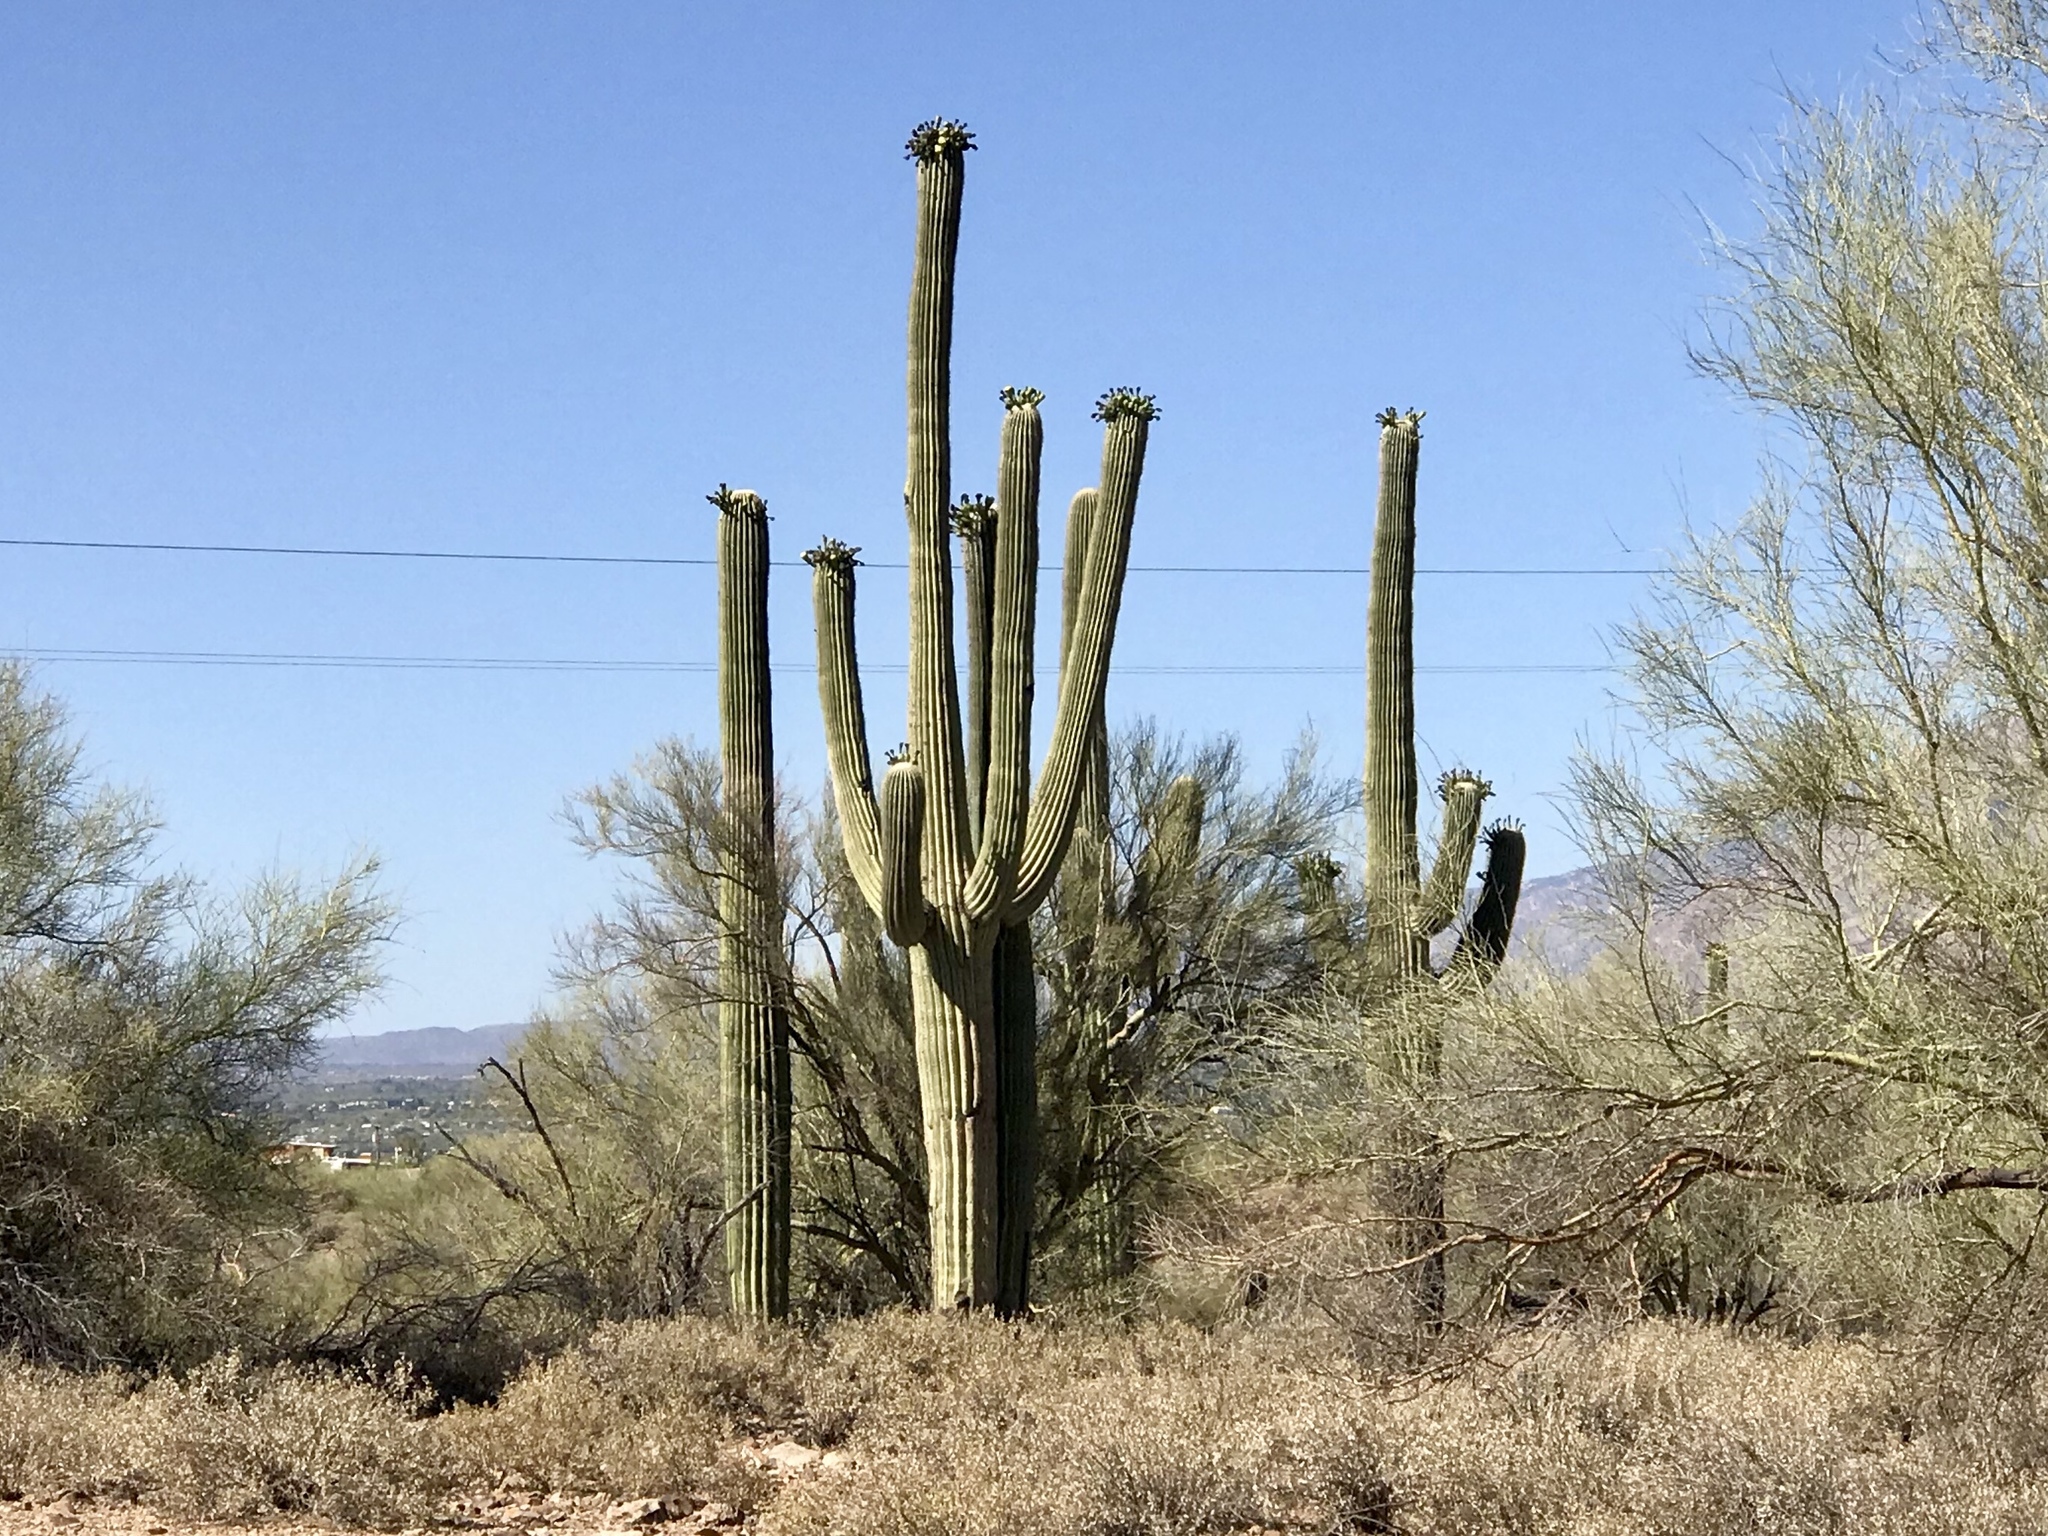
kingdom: Plantae
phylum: Tracheophyta
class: Magnoliopsida
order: Caryophyllales
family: Cactaceae
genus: Carnegiea
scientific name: Carnegiea gigantea
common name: Saguaro
